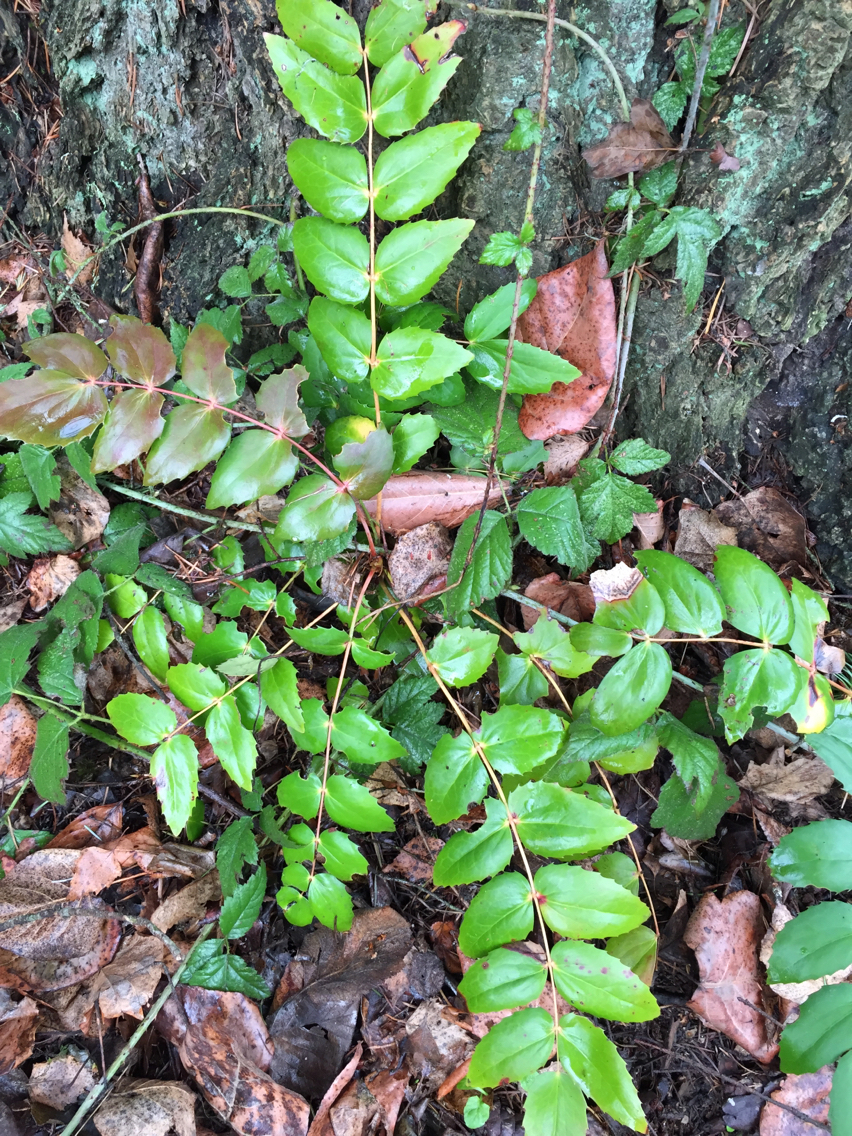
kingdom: Plantae
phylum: Tracheophyta
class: Magnoliopsida
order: Ranunculales
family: Berberidaceae
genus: Mahonia
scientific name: Mahonia nervosa
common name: Cascade oregon-grape
